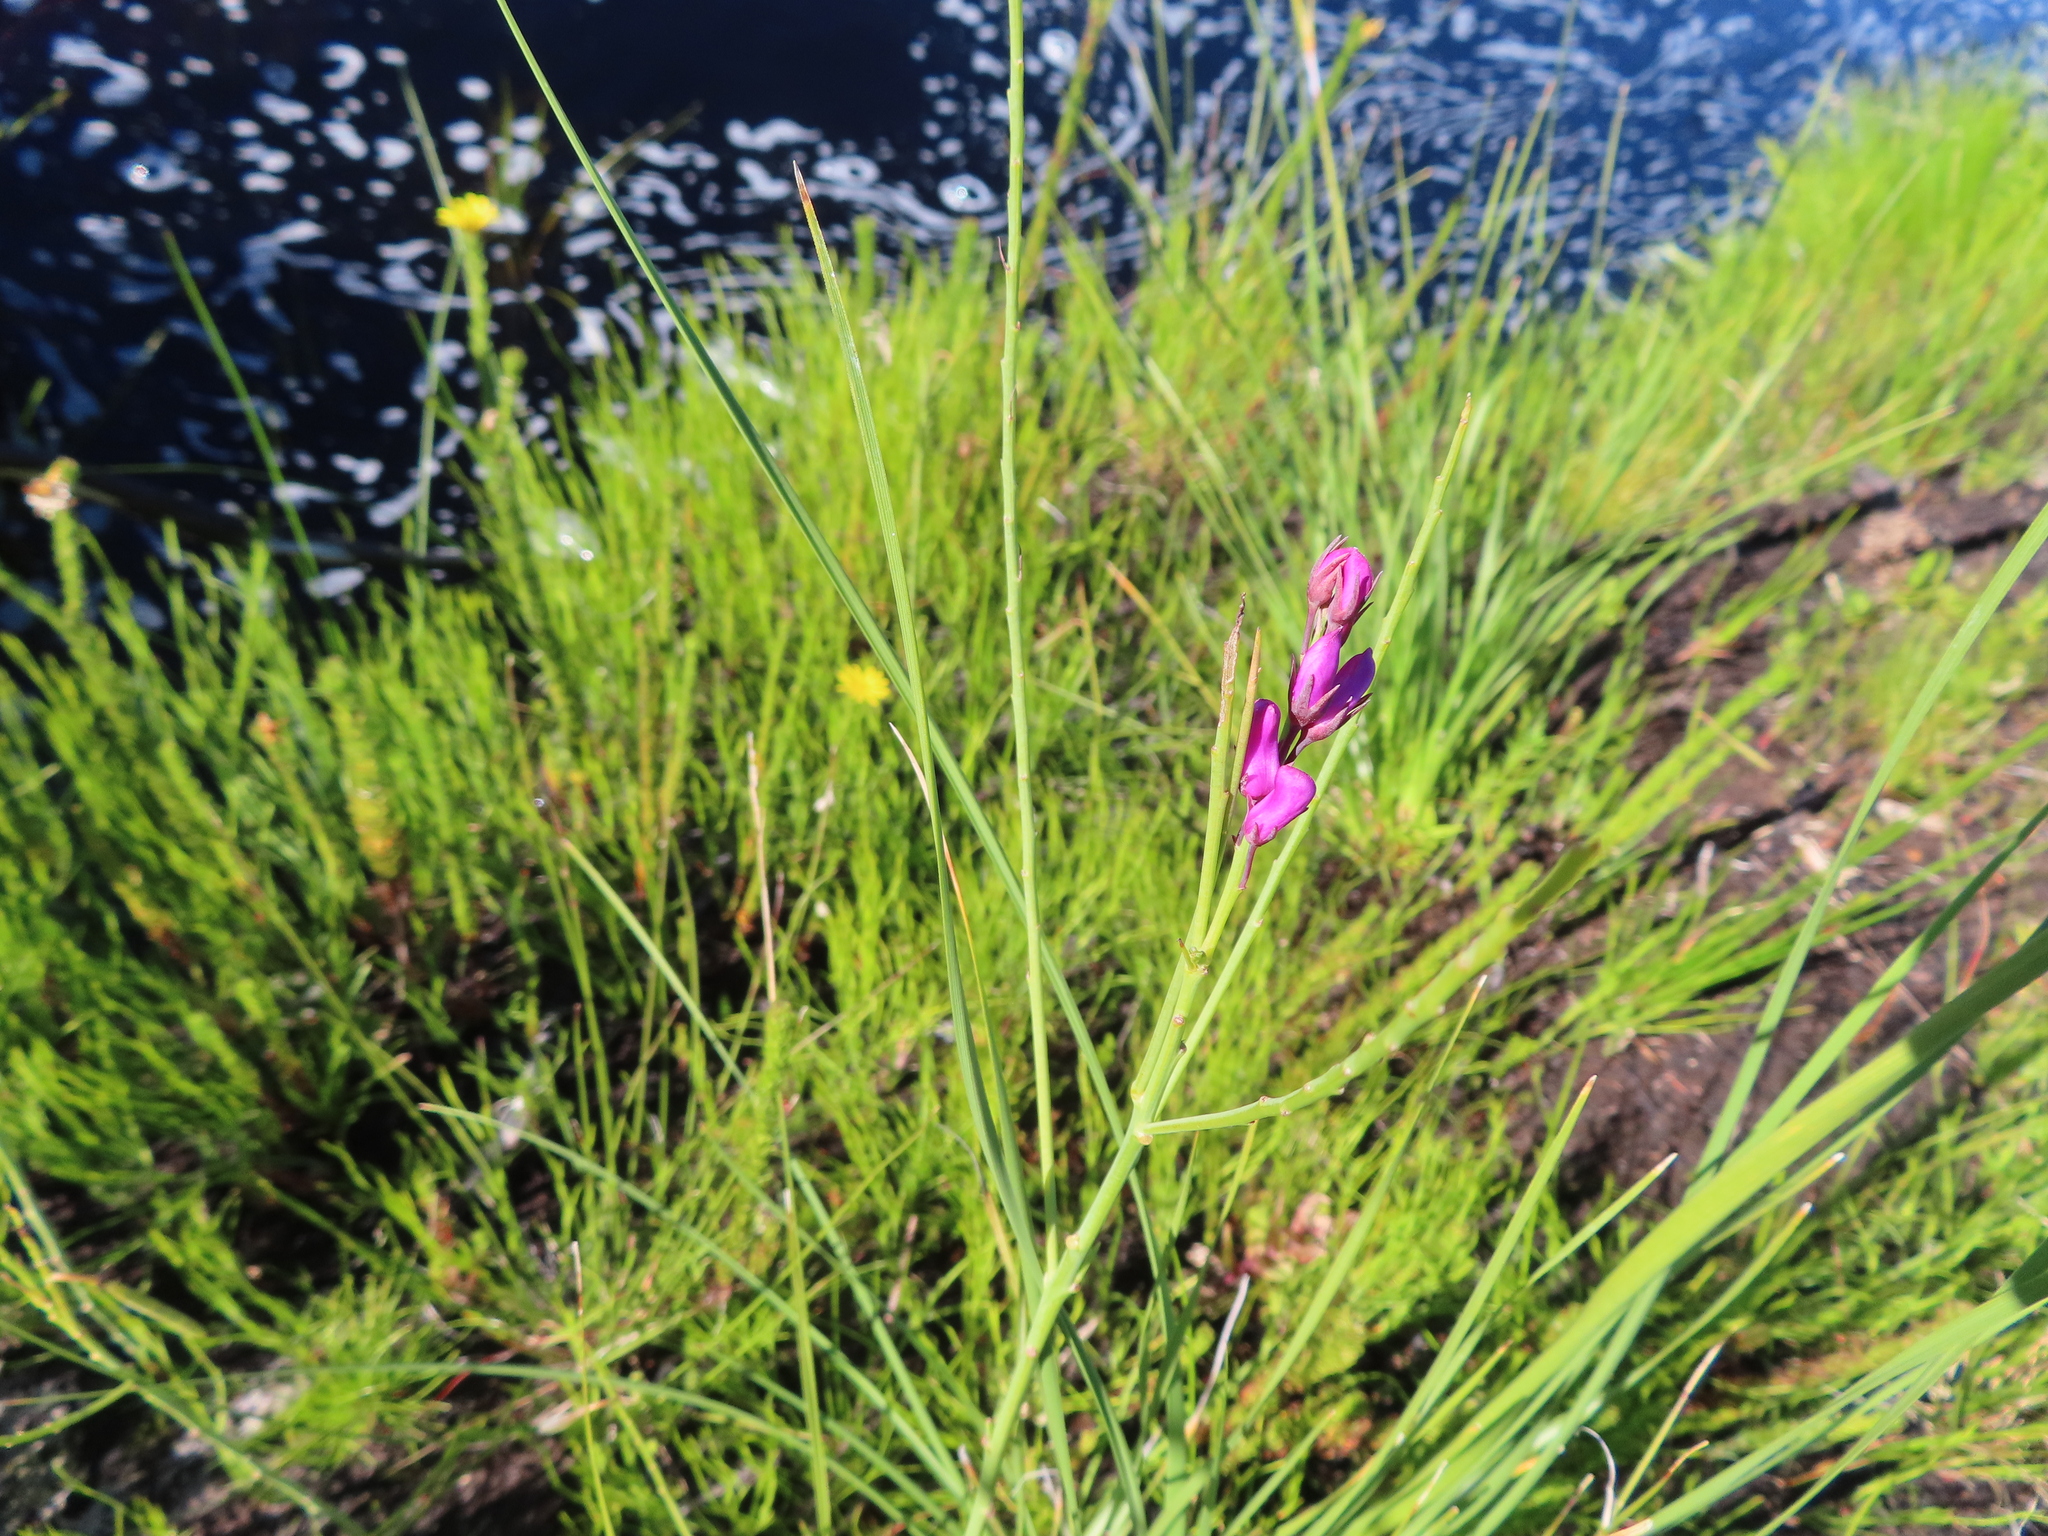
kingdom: Plantae
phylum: Tracheophyta
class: Magnoliopsida
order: Fabales
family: Fabaceae
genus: Indigofera
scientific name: Indigofera filifolia
